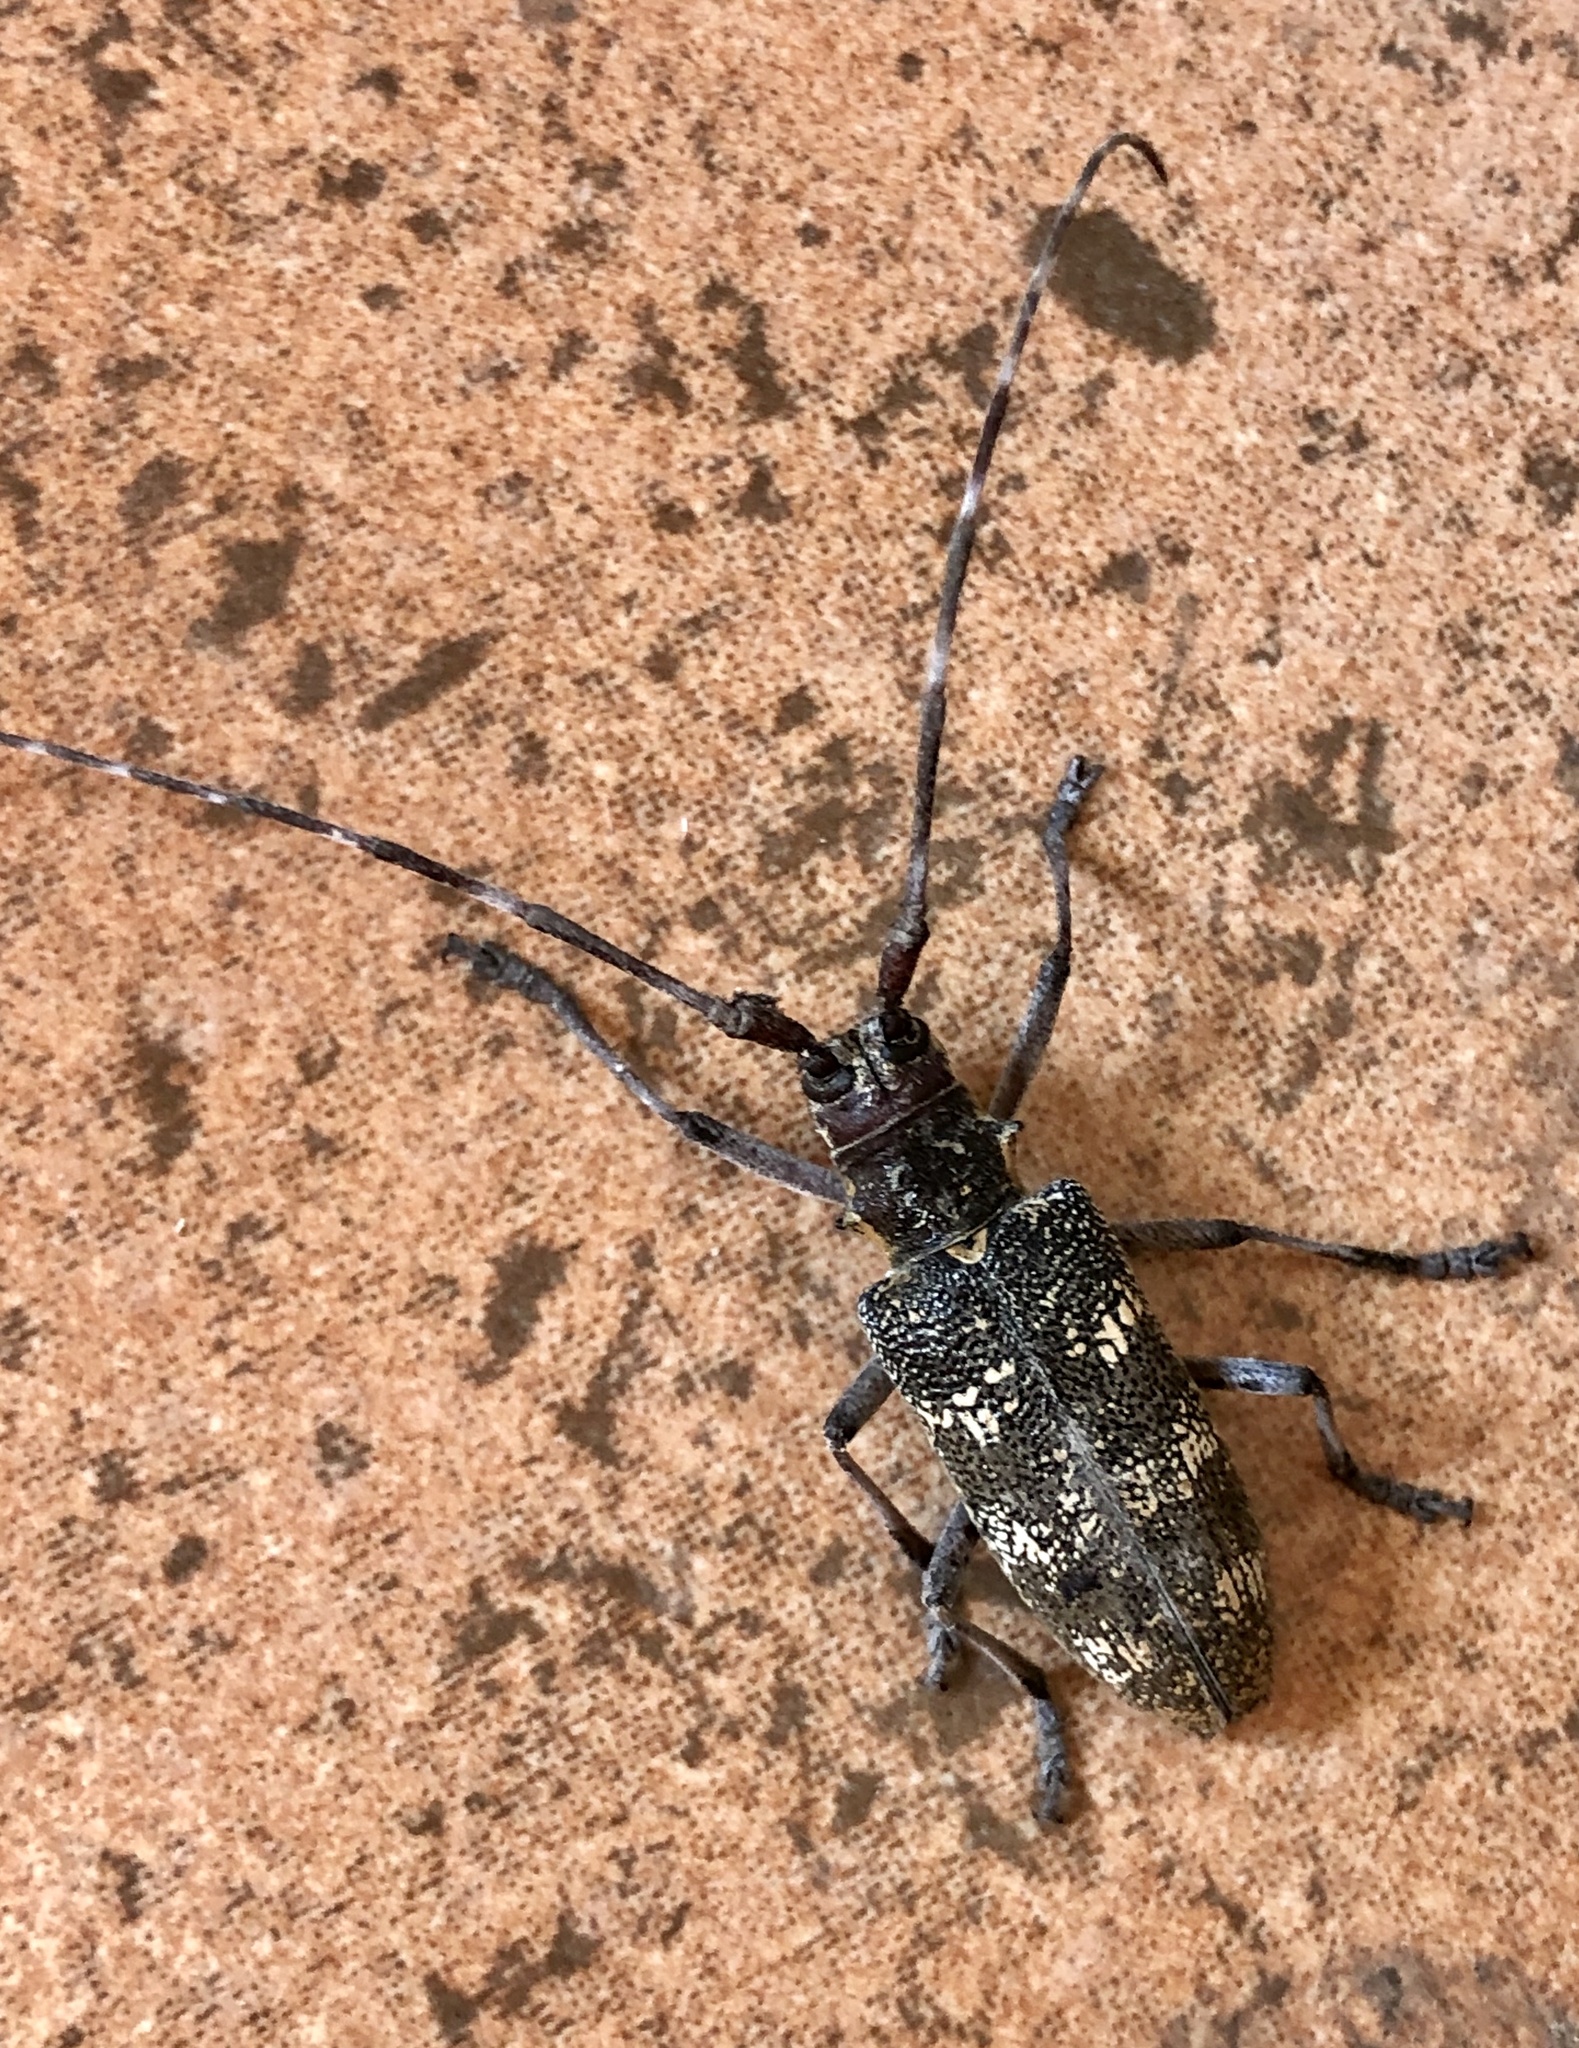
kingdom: Animalia
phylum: Arthropoda
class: Insecta
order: Coleoptera
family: Cerambycidae
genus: Monochamus
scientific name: Monochamus galloprovincialis
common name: Pine sawyer
